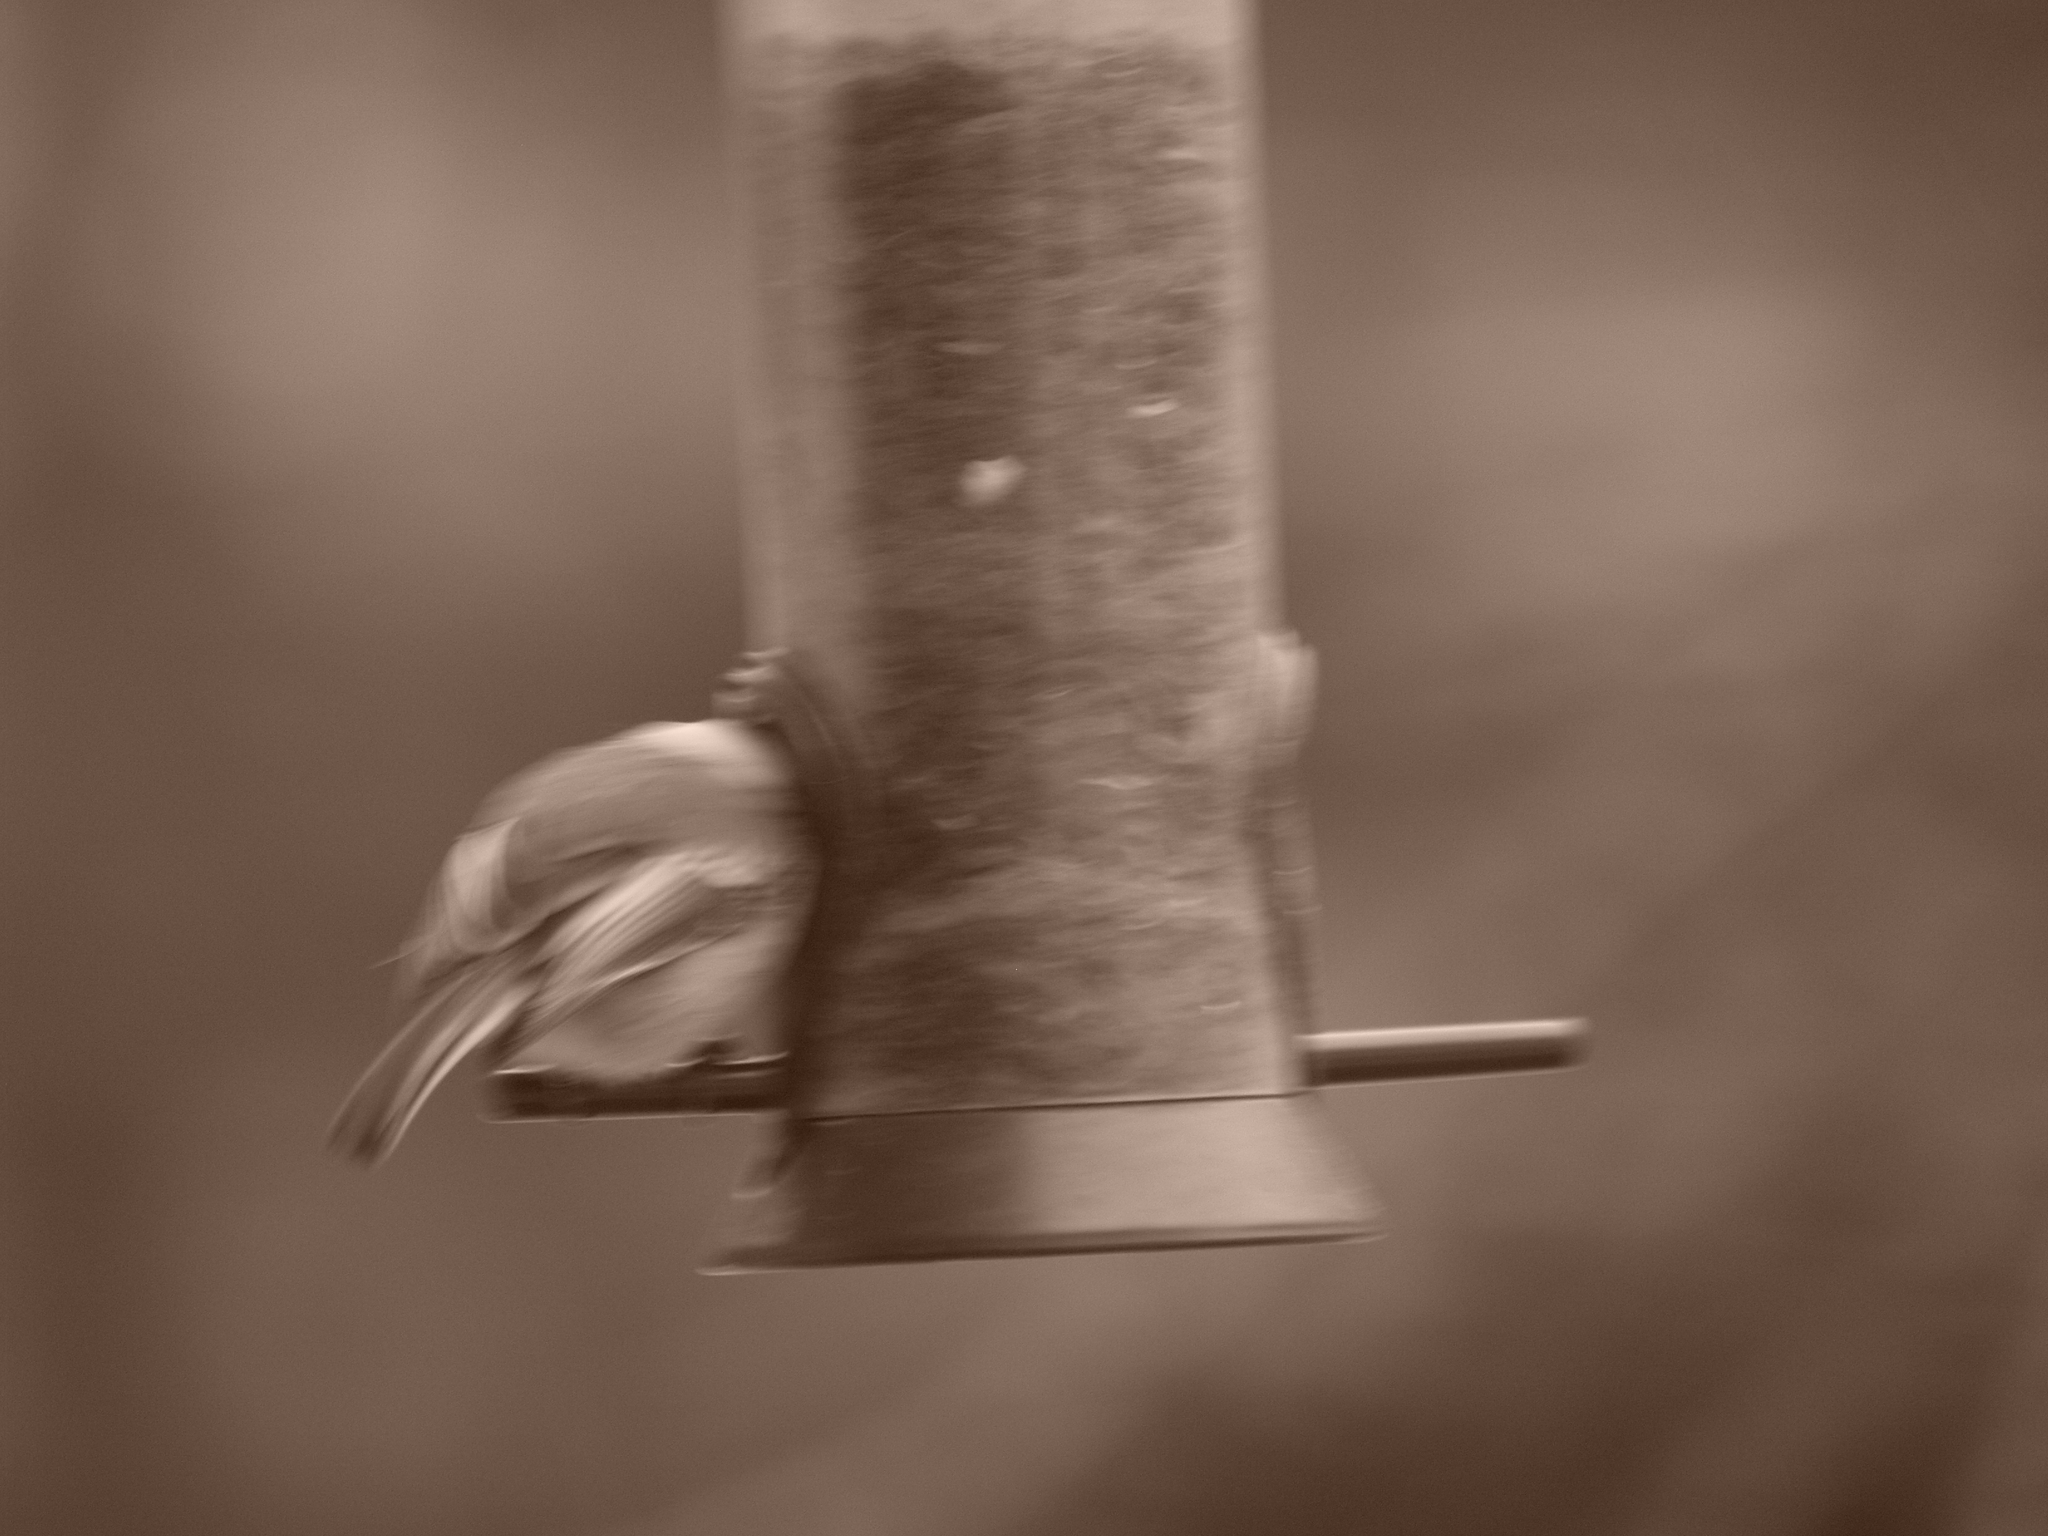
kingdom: Animalia
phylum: Chordata
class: Aves
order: Passeriformes
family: Paridae
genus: Poecile
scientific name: Poecile atricapillus
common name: Black-capped chickadee
